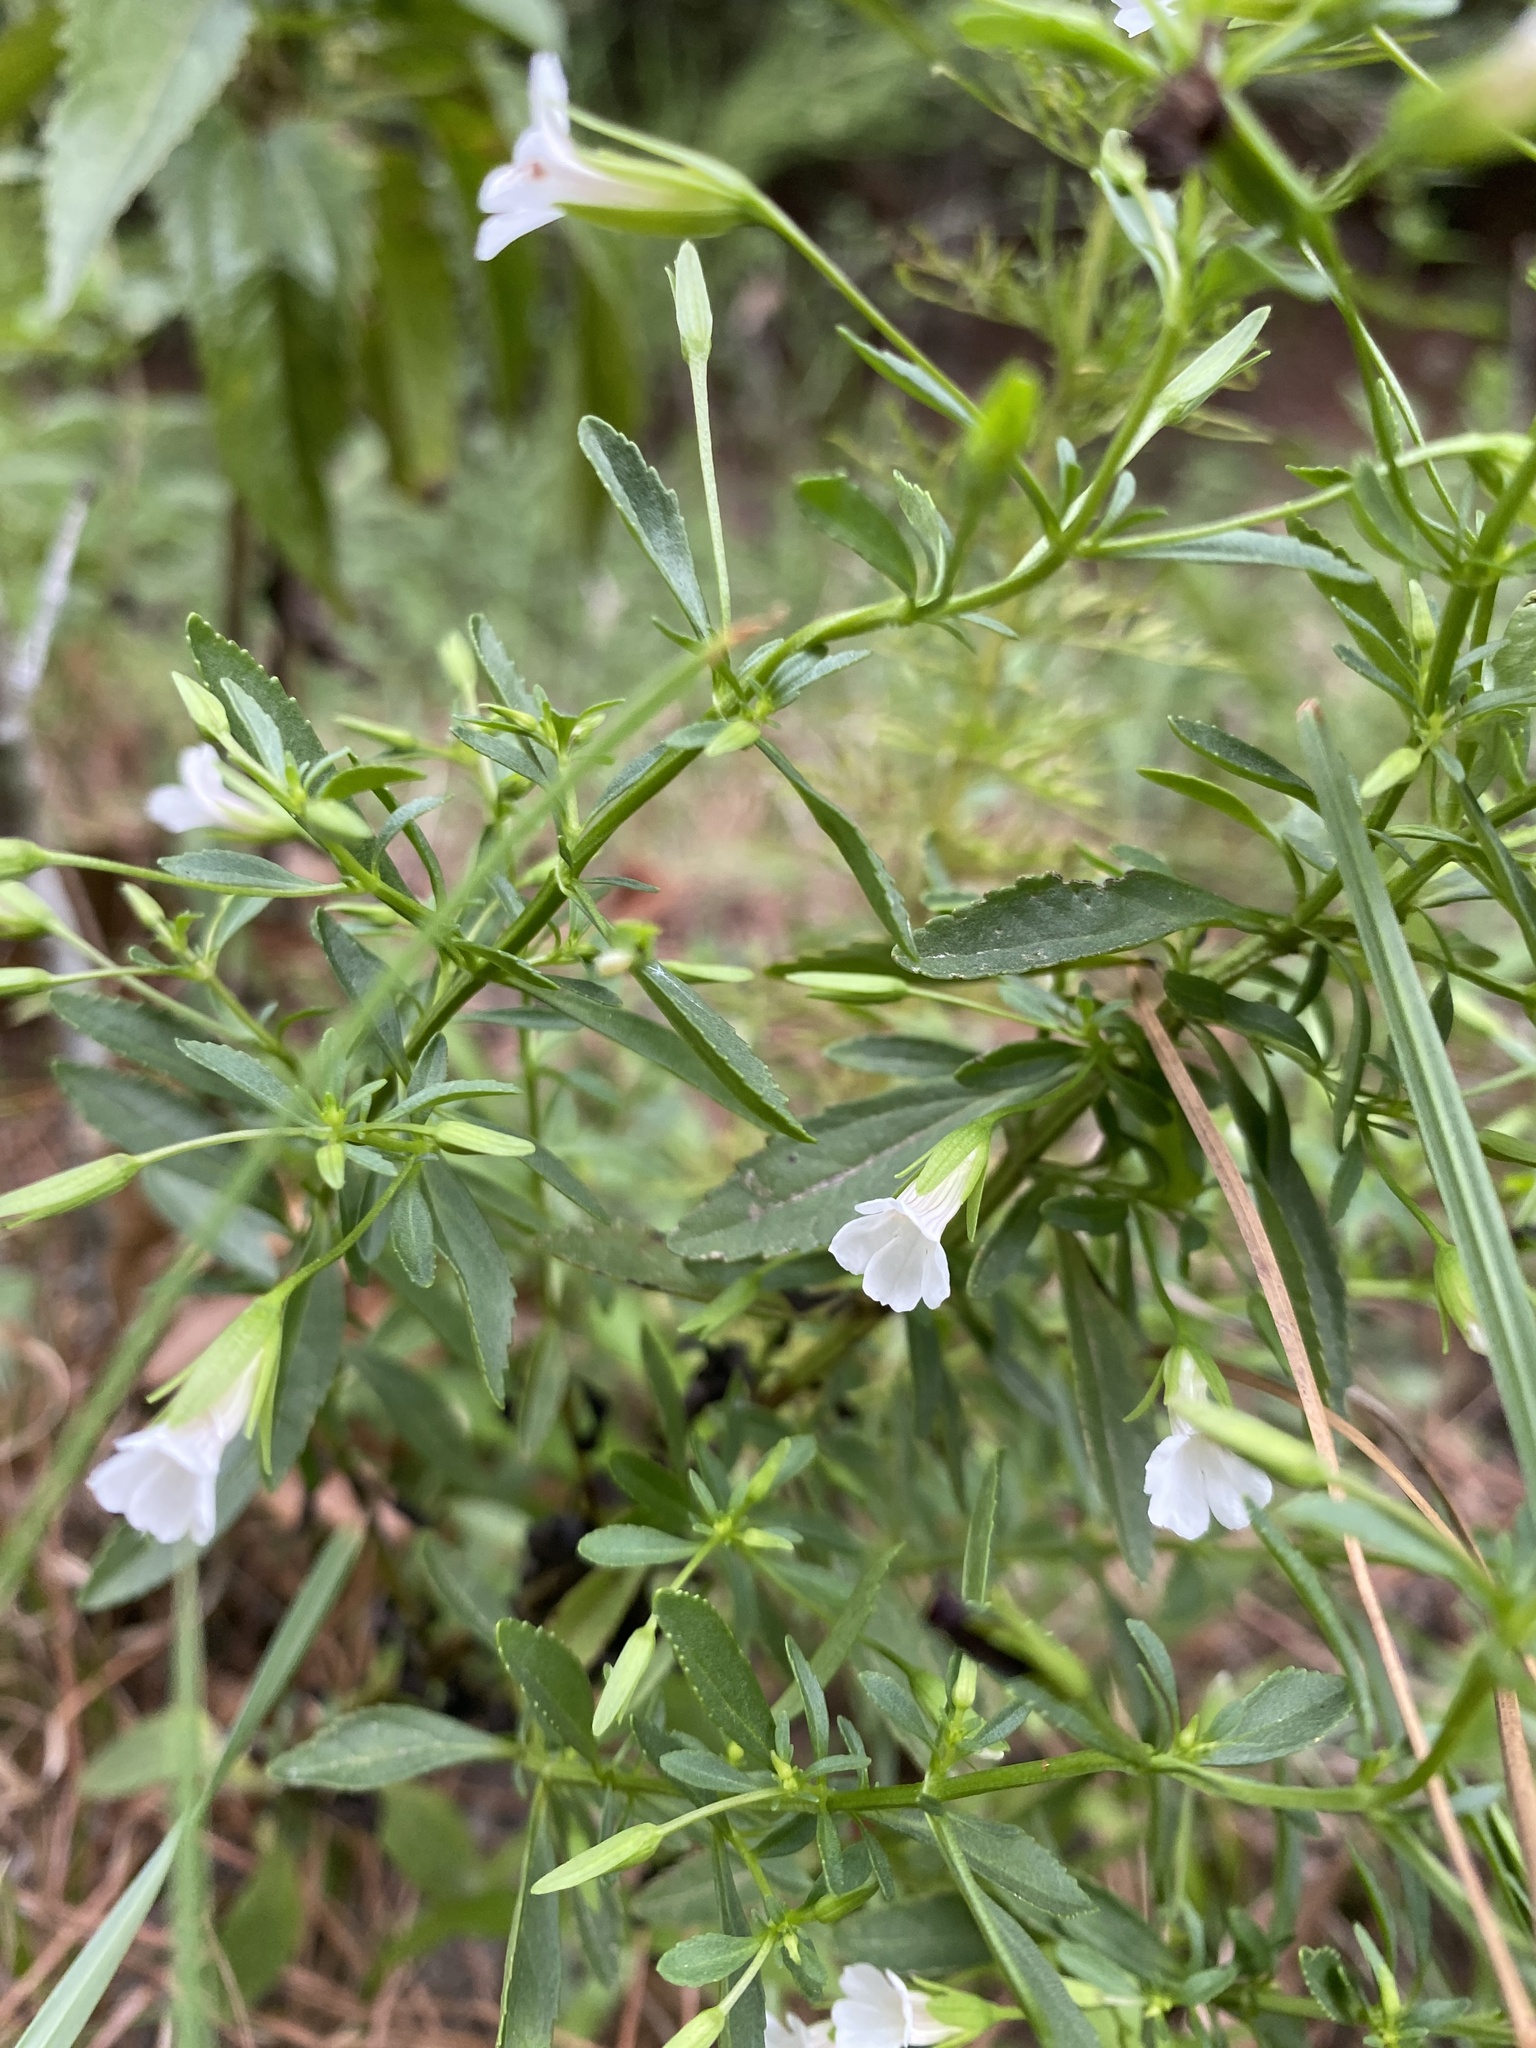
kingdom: Plantae
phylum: Tracheophyta
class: Magnoliopsida
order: Lamiales
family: Plantaginaceae
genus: Mecardonia
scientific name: Mecardonia acuminata
